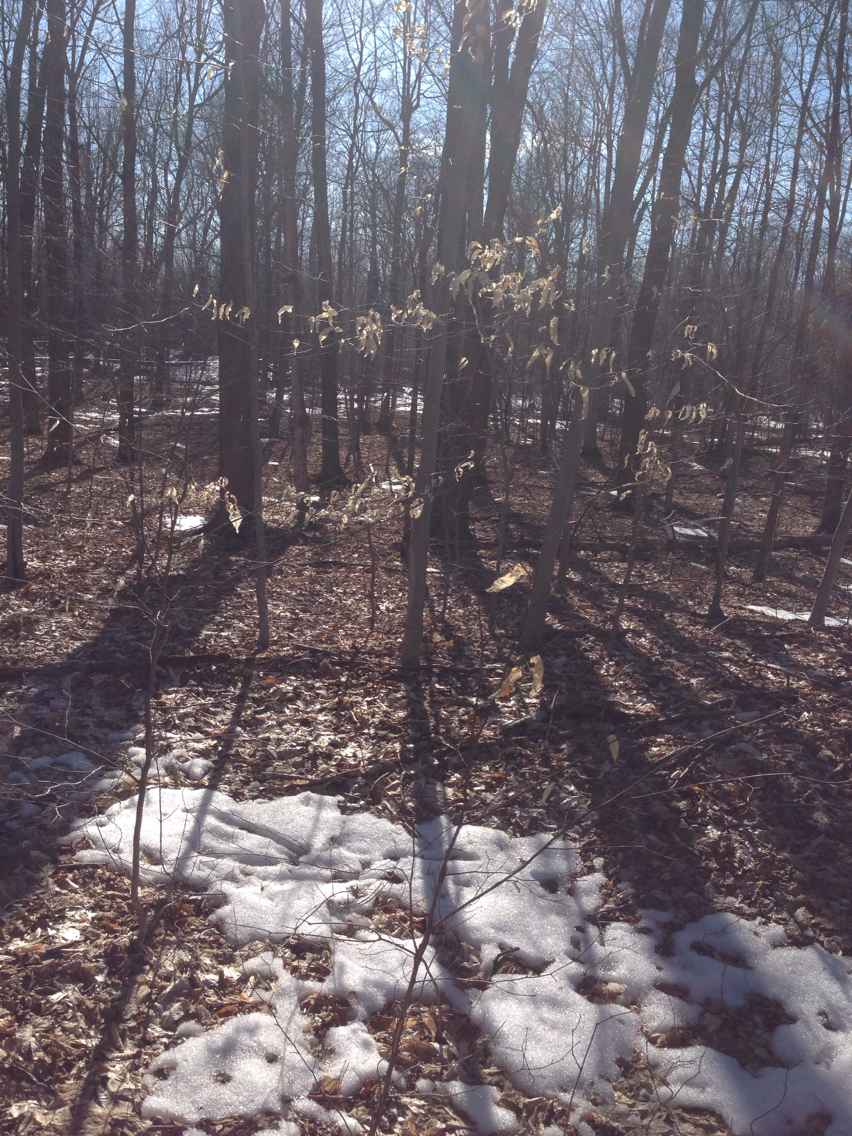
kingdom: Plantae
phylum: Tracheophyta
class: Magnoliopsida
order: Fagales
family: Fagaceae
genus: Fagus
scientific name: Fagus grandifolia
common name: American beech
